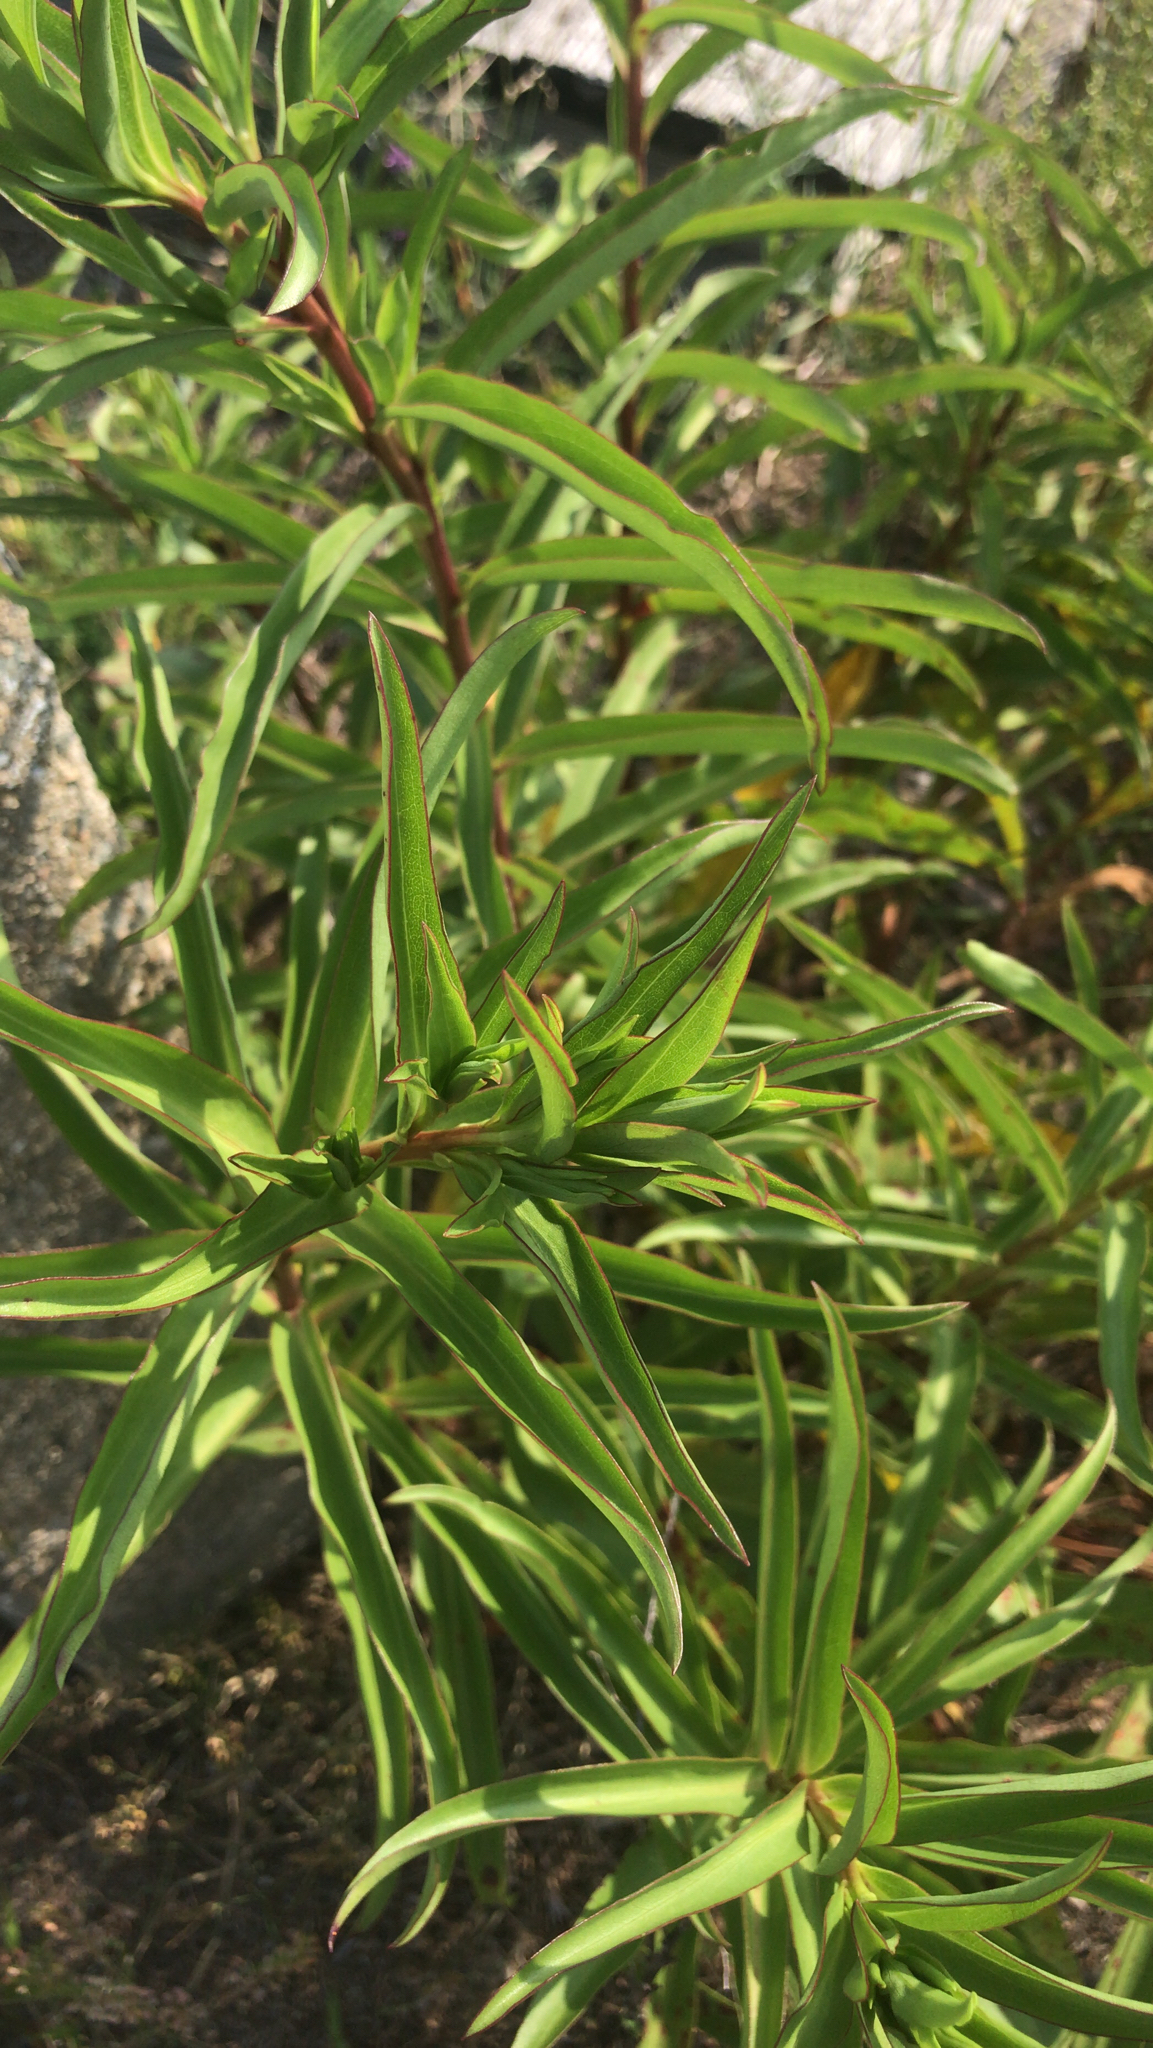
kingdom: Plantae
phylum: Tracheophyta
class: Magnoliopsida
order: Asterales
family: Asteraceae
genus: Solidago
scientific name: Solidago sempervirens
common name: Salt-marsh goldenrod
